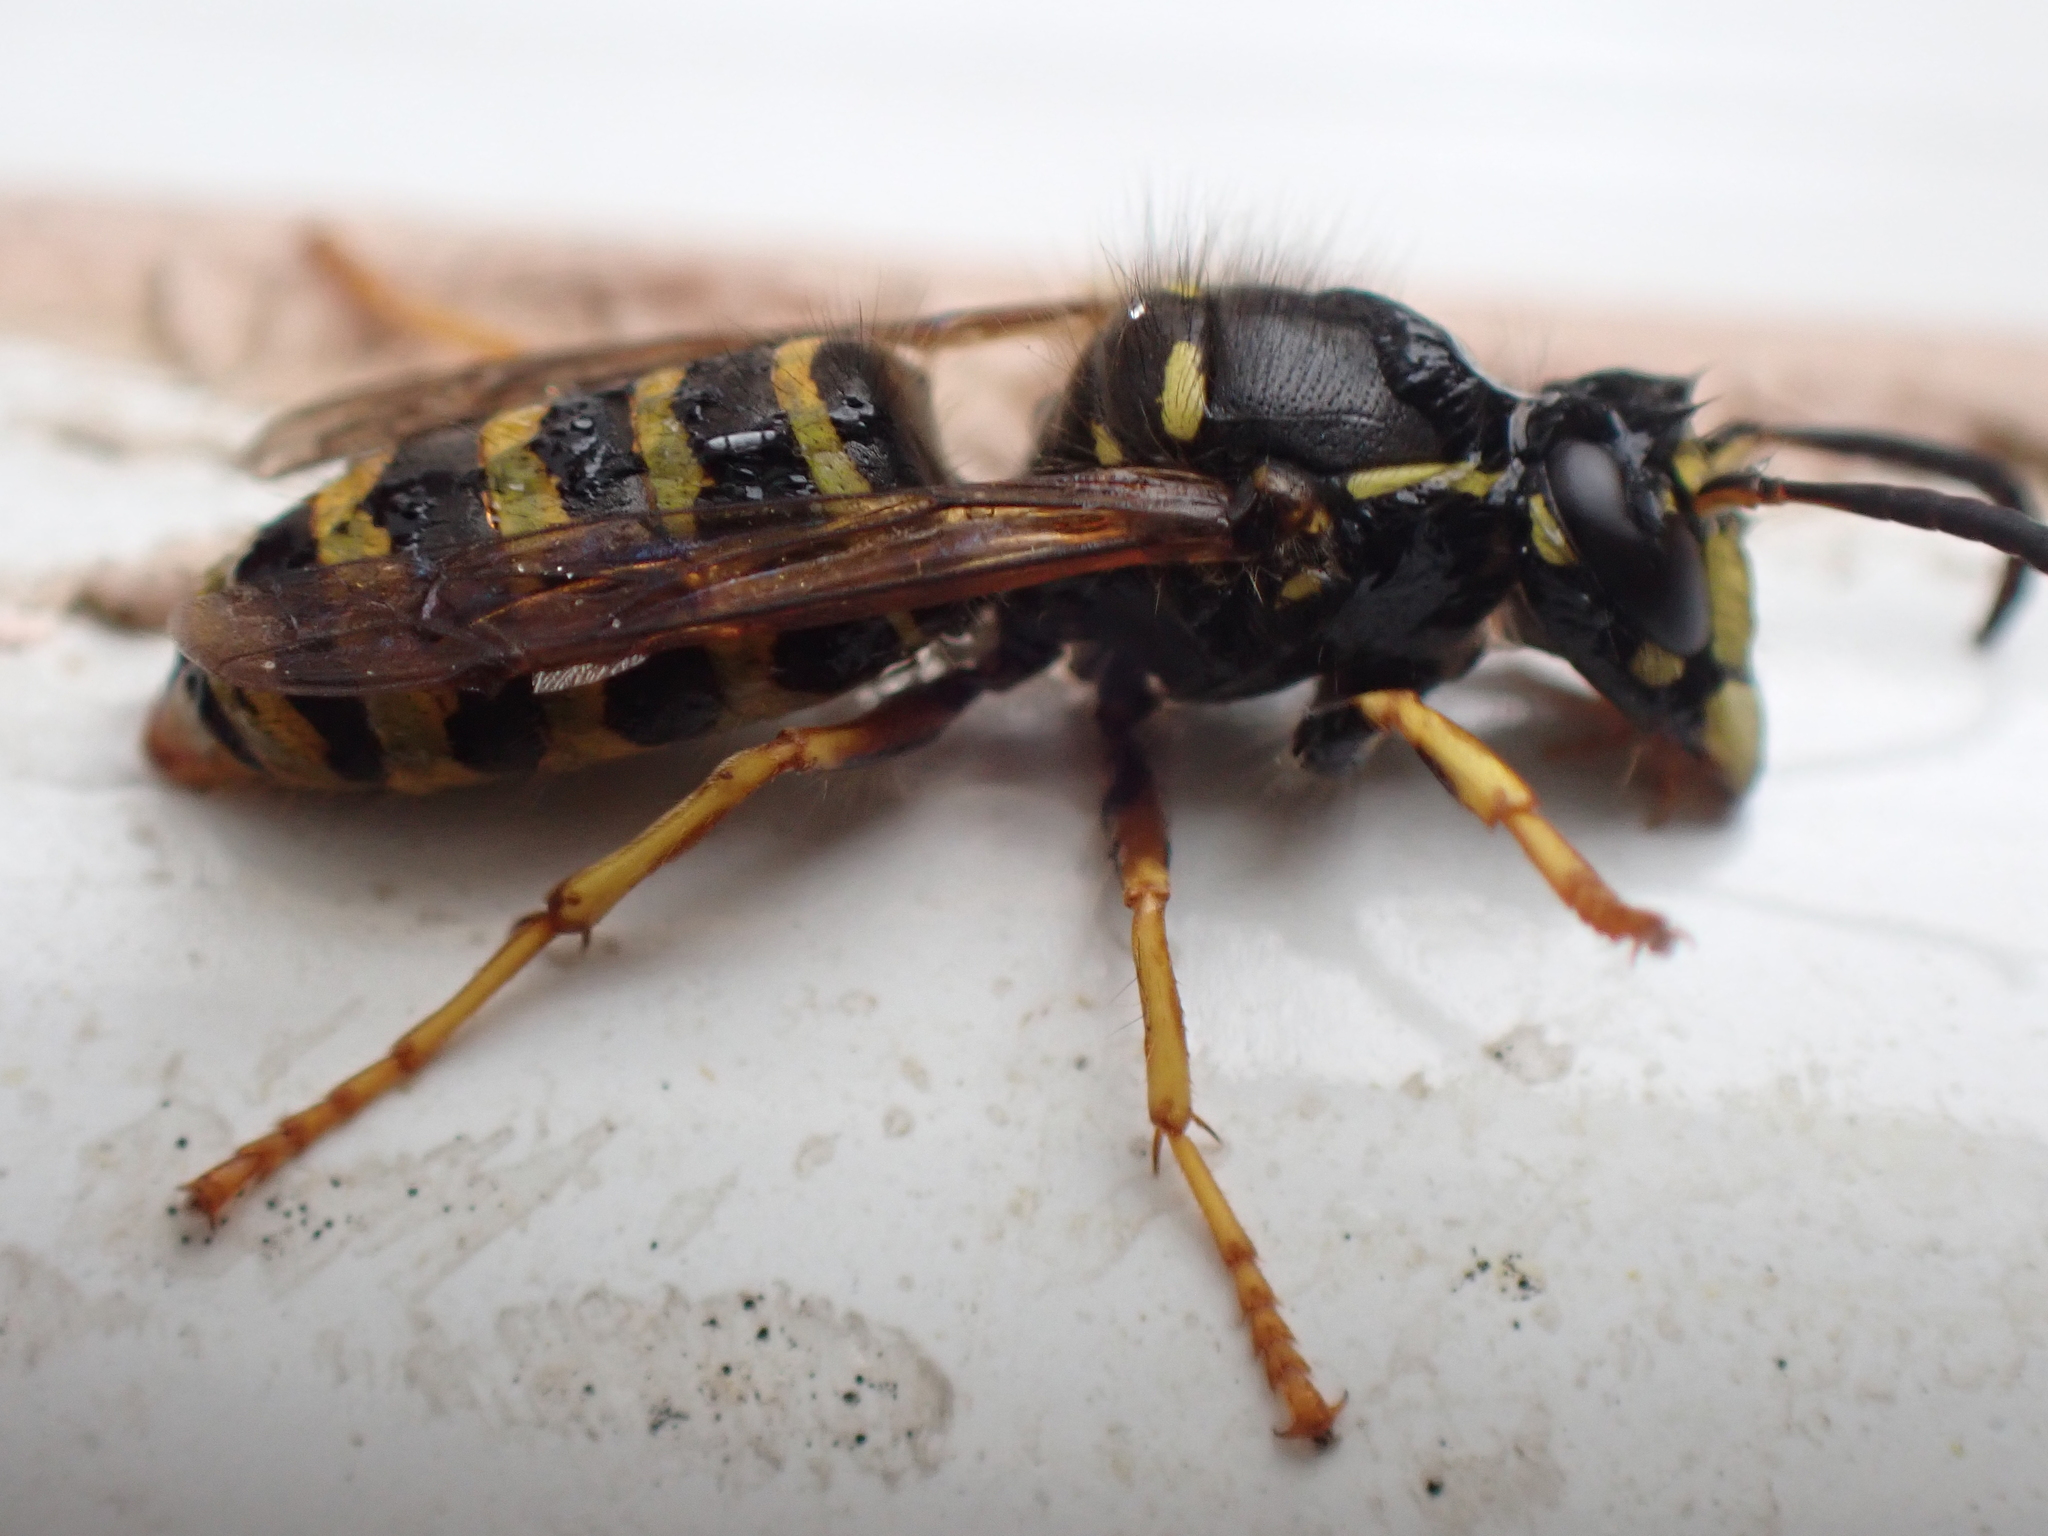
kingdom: Animalia
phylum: Arthropoda
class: Insecta
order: Hymenoptera
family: Vespidae
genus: Dolichovespula
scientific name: Dolichovespula saxonica
